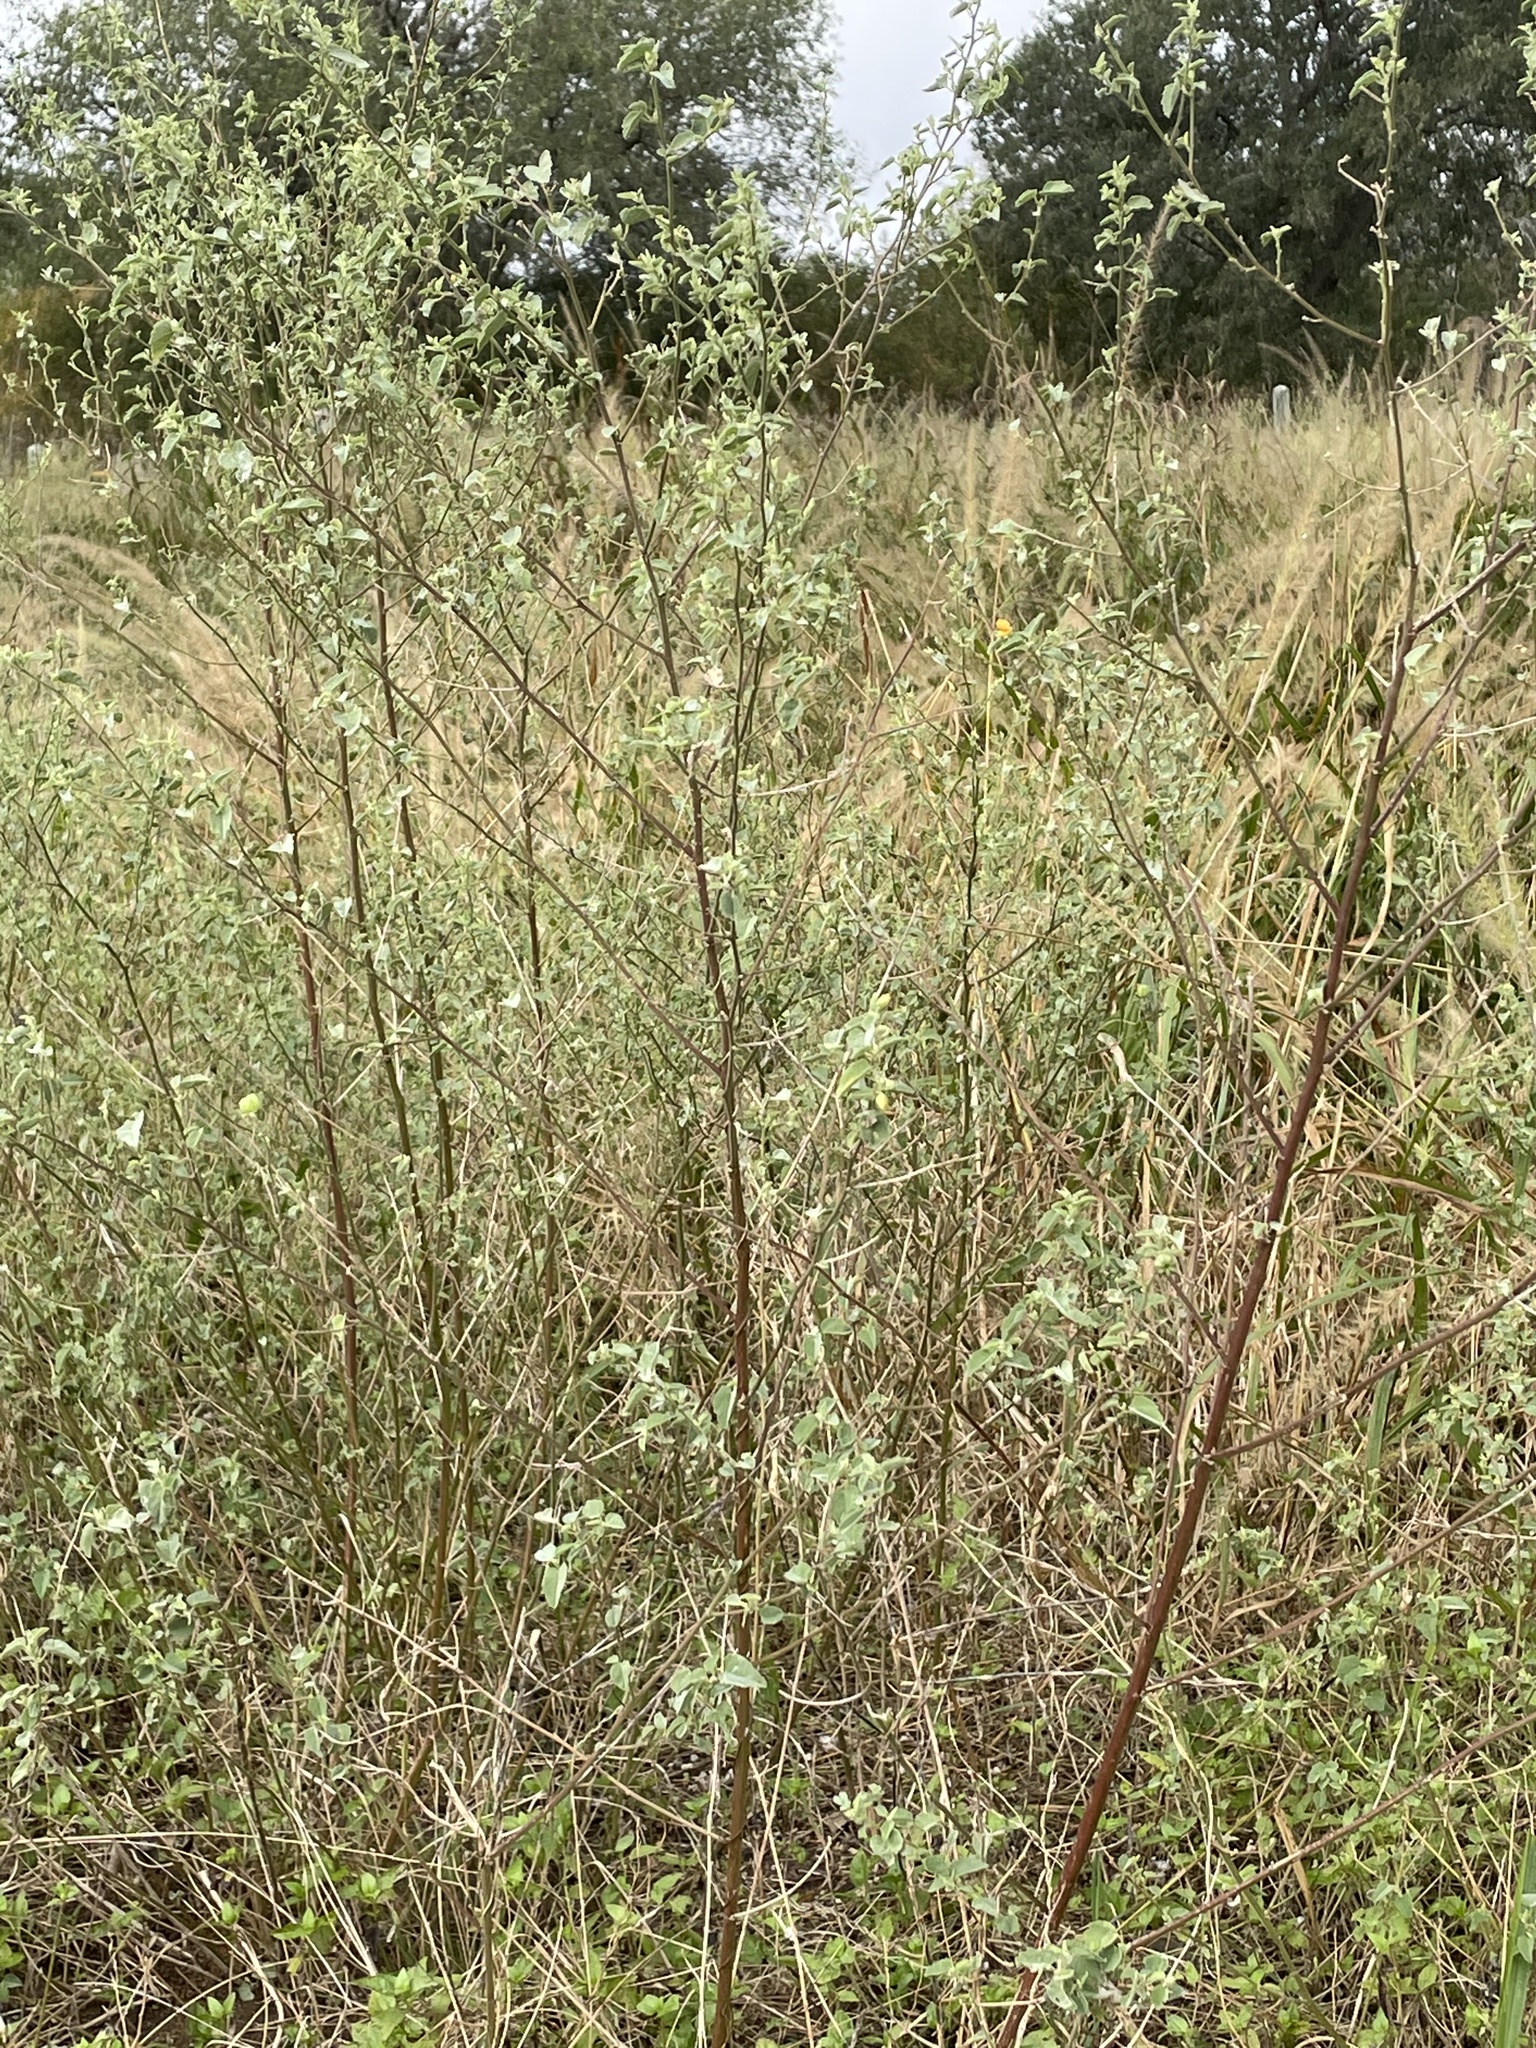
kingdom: Plantae
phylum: Tracheophyta
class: Magnoliopsida
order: Malvales
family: Malvaceae
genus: Abutilon
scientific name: Abutilon fruticosum
